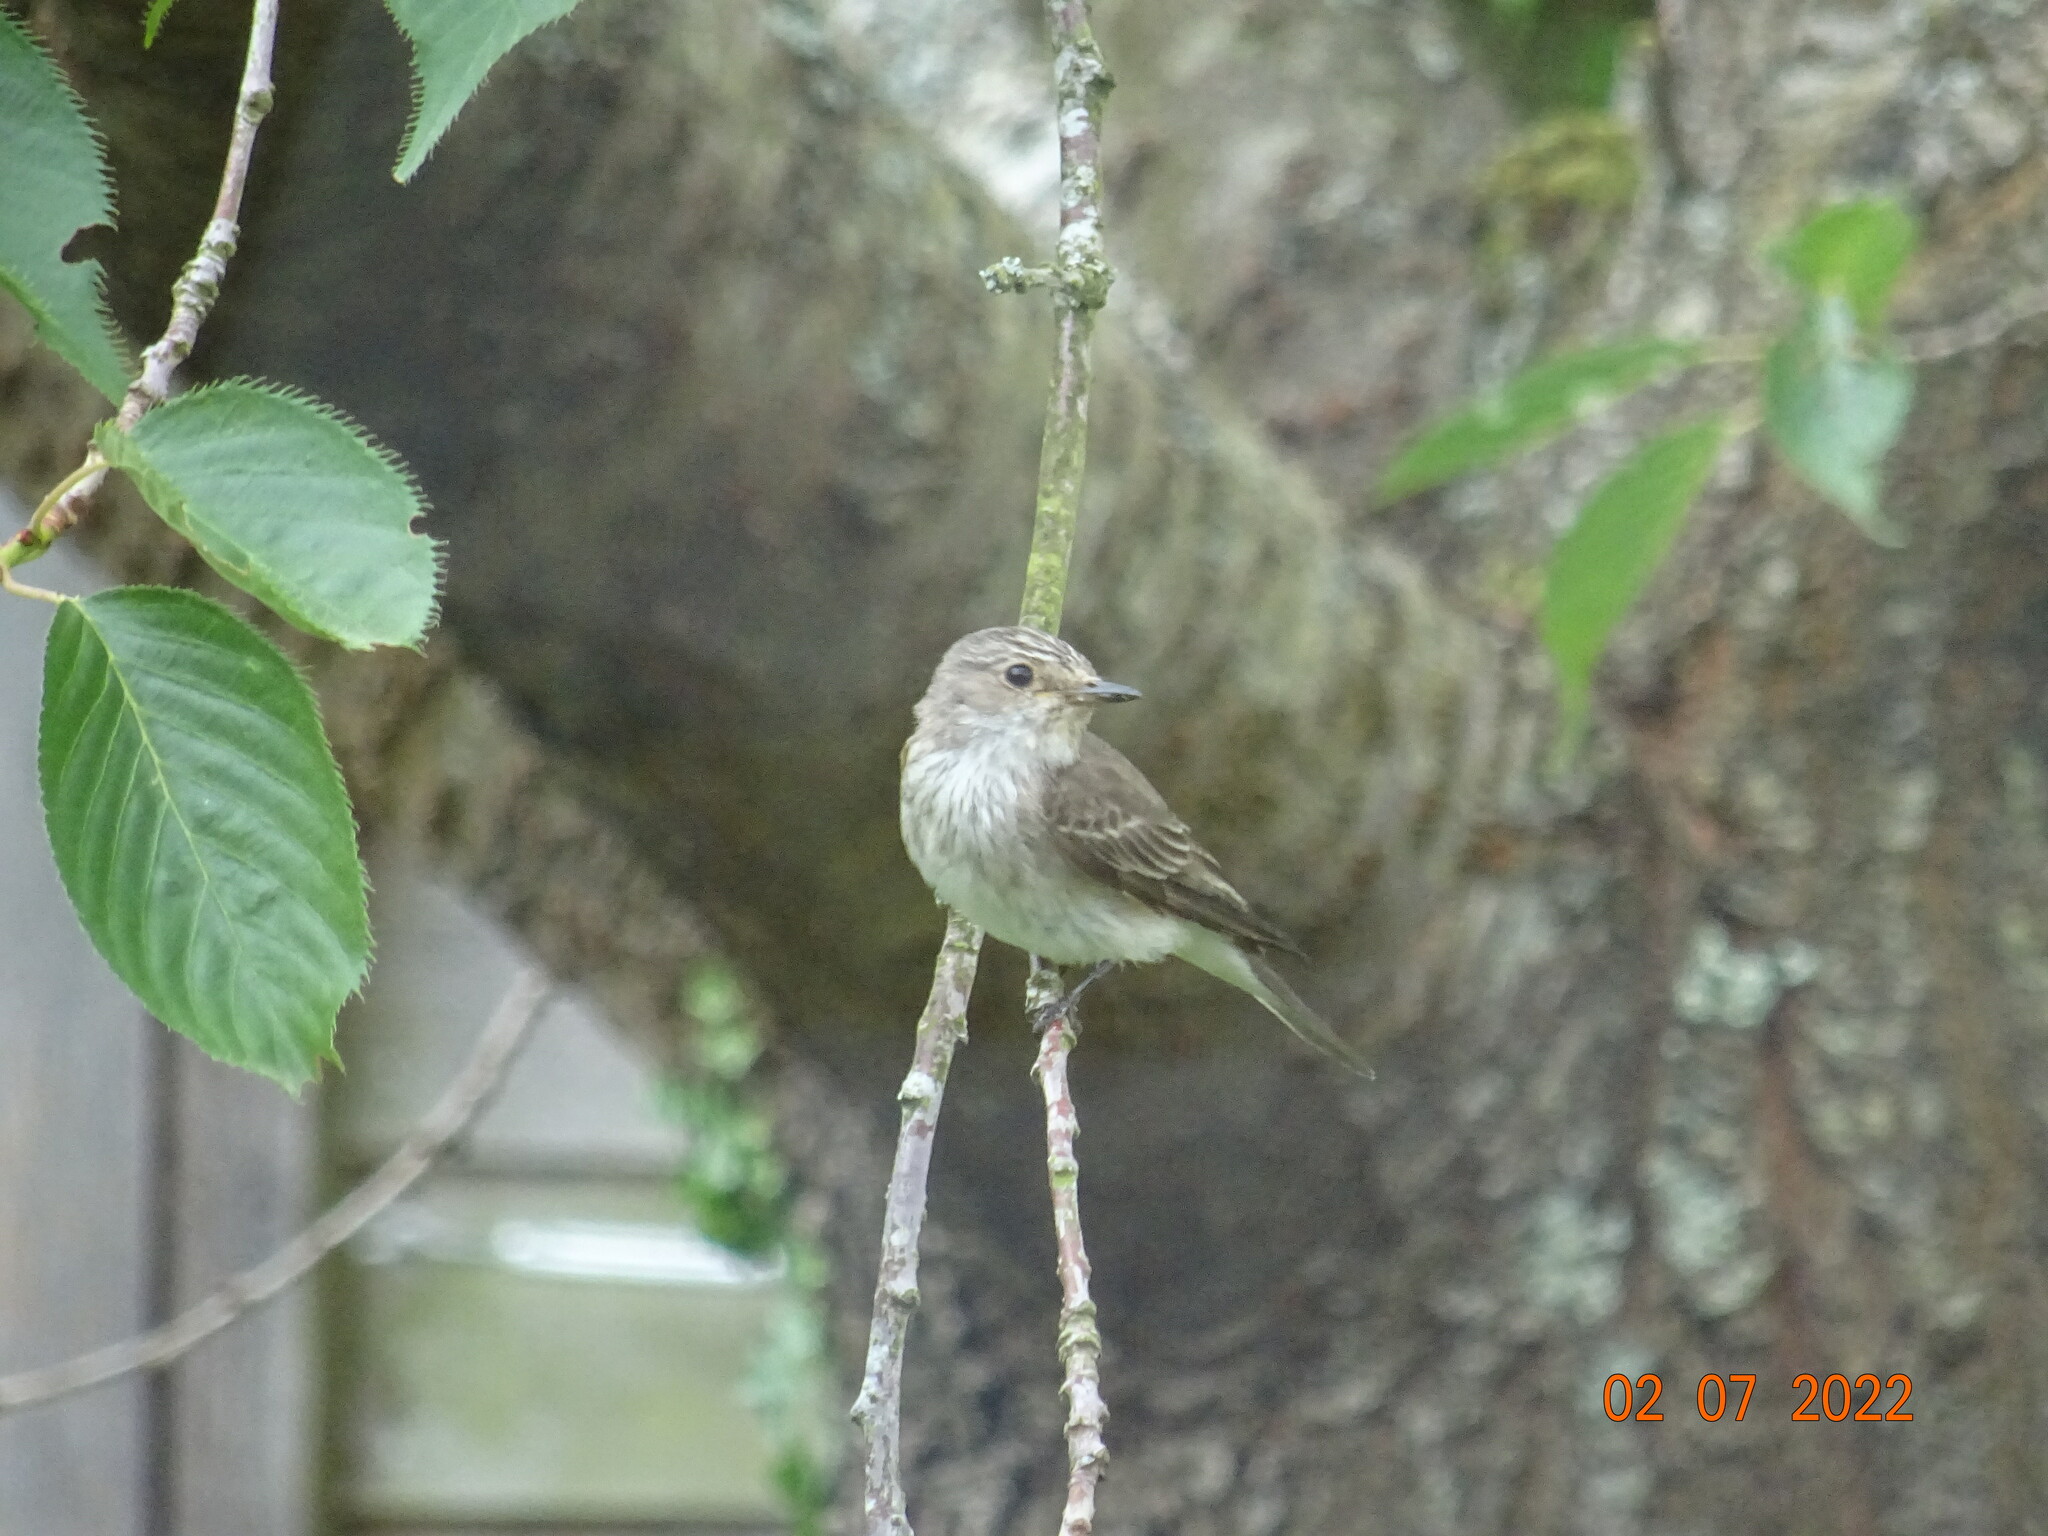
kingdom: Animalia
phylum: Chordata
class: Aves
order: Passeriformes
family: Muscicapidae
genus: Muscicapa
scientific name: Muscicapa striata
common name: Spotted flycatcher
